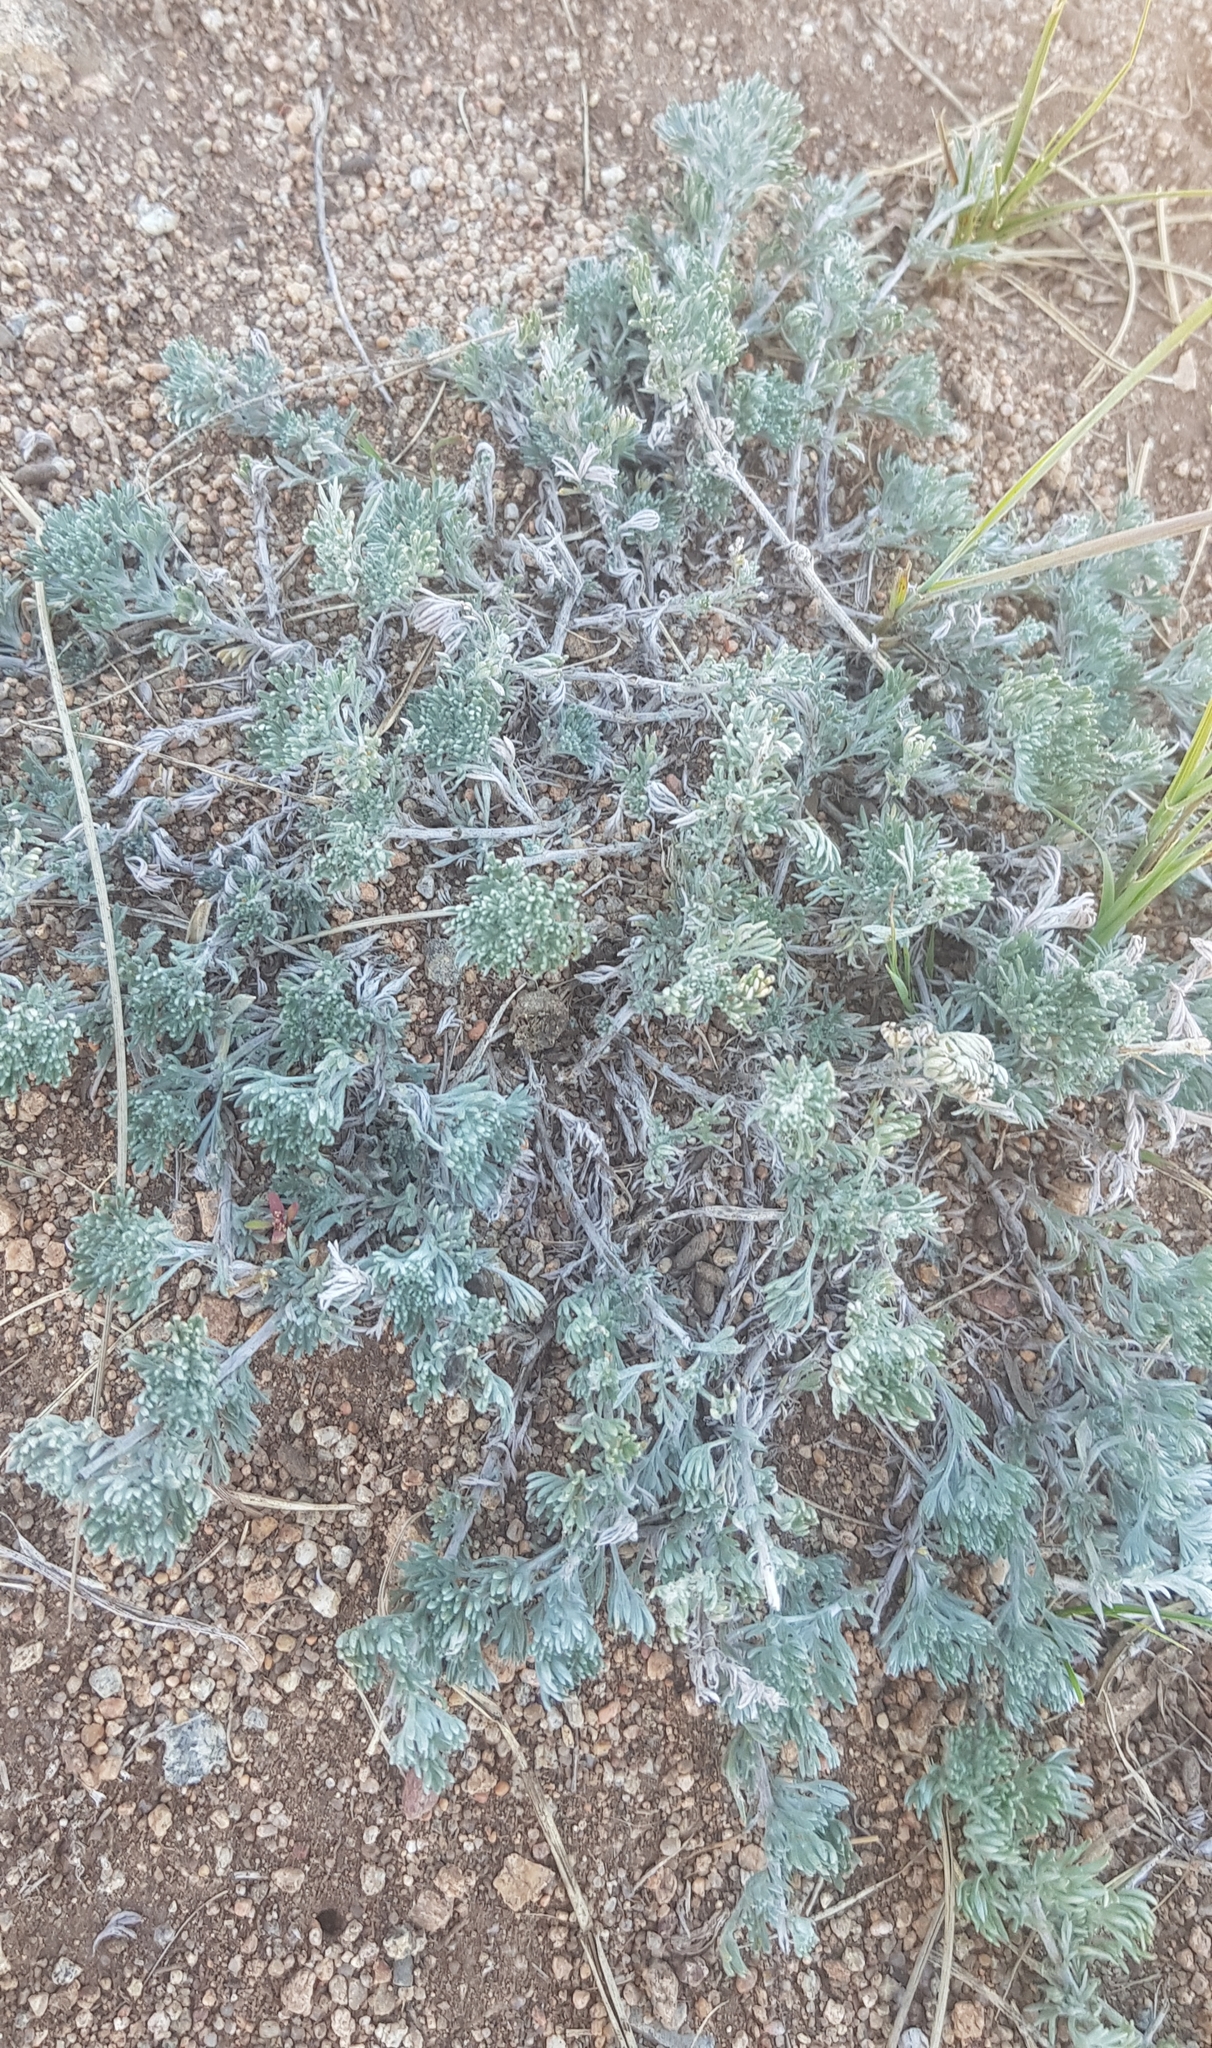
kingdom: Plantae
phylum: Tracheophyta
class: Magnoliopsida
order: Asterales
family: Asteraceae
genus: Artemisia
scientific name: Artemisia frigida
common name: Prairie sagewort
